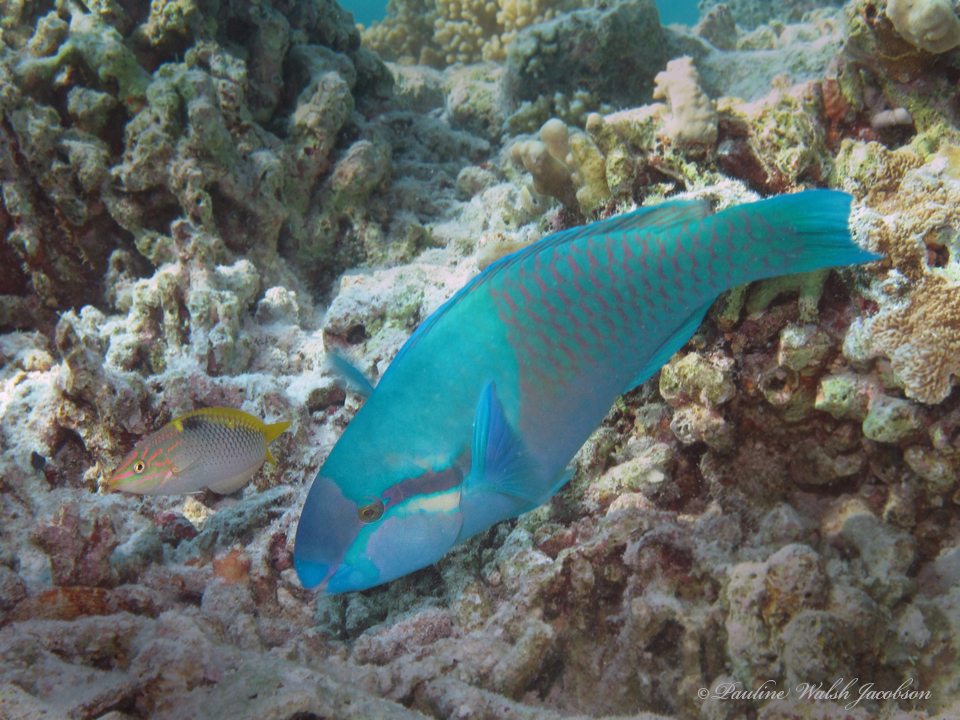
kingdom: Animalia
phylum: Chordata
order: Perciformes
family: Scaridae
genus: Scarus
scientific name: Scarus dimidiatus
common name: Yellowbarred parrotfish
